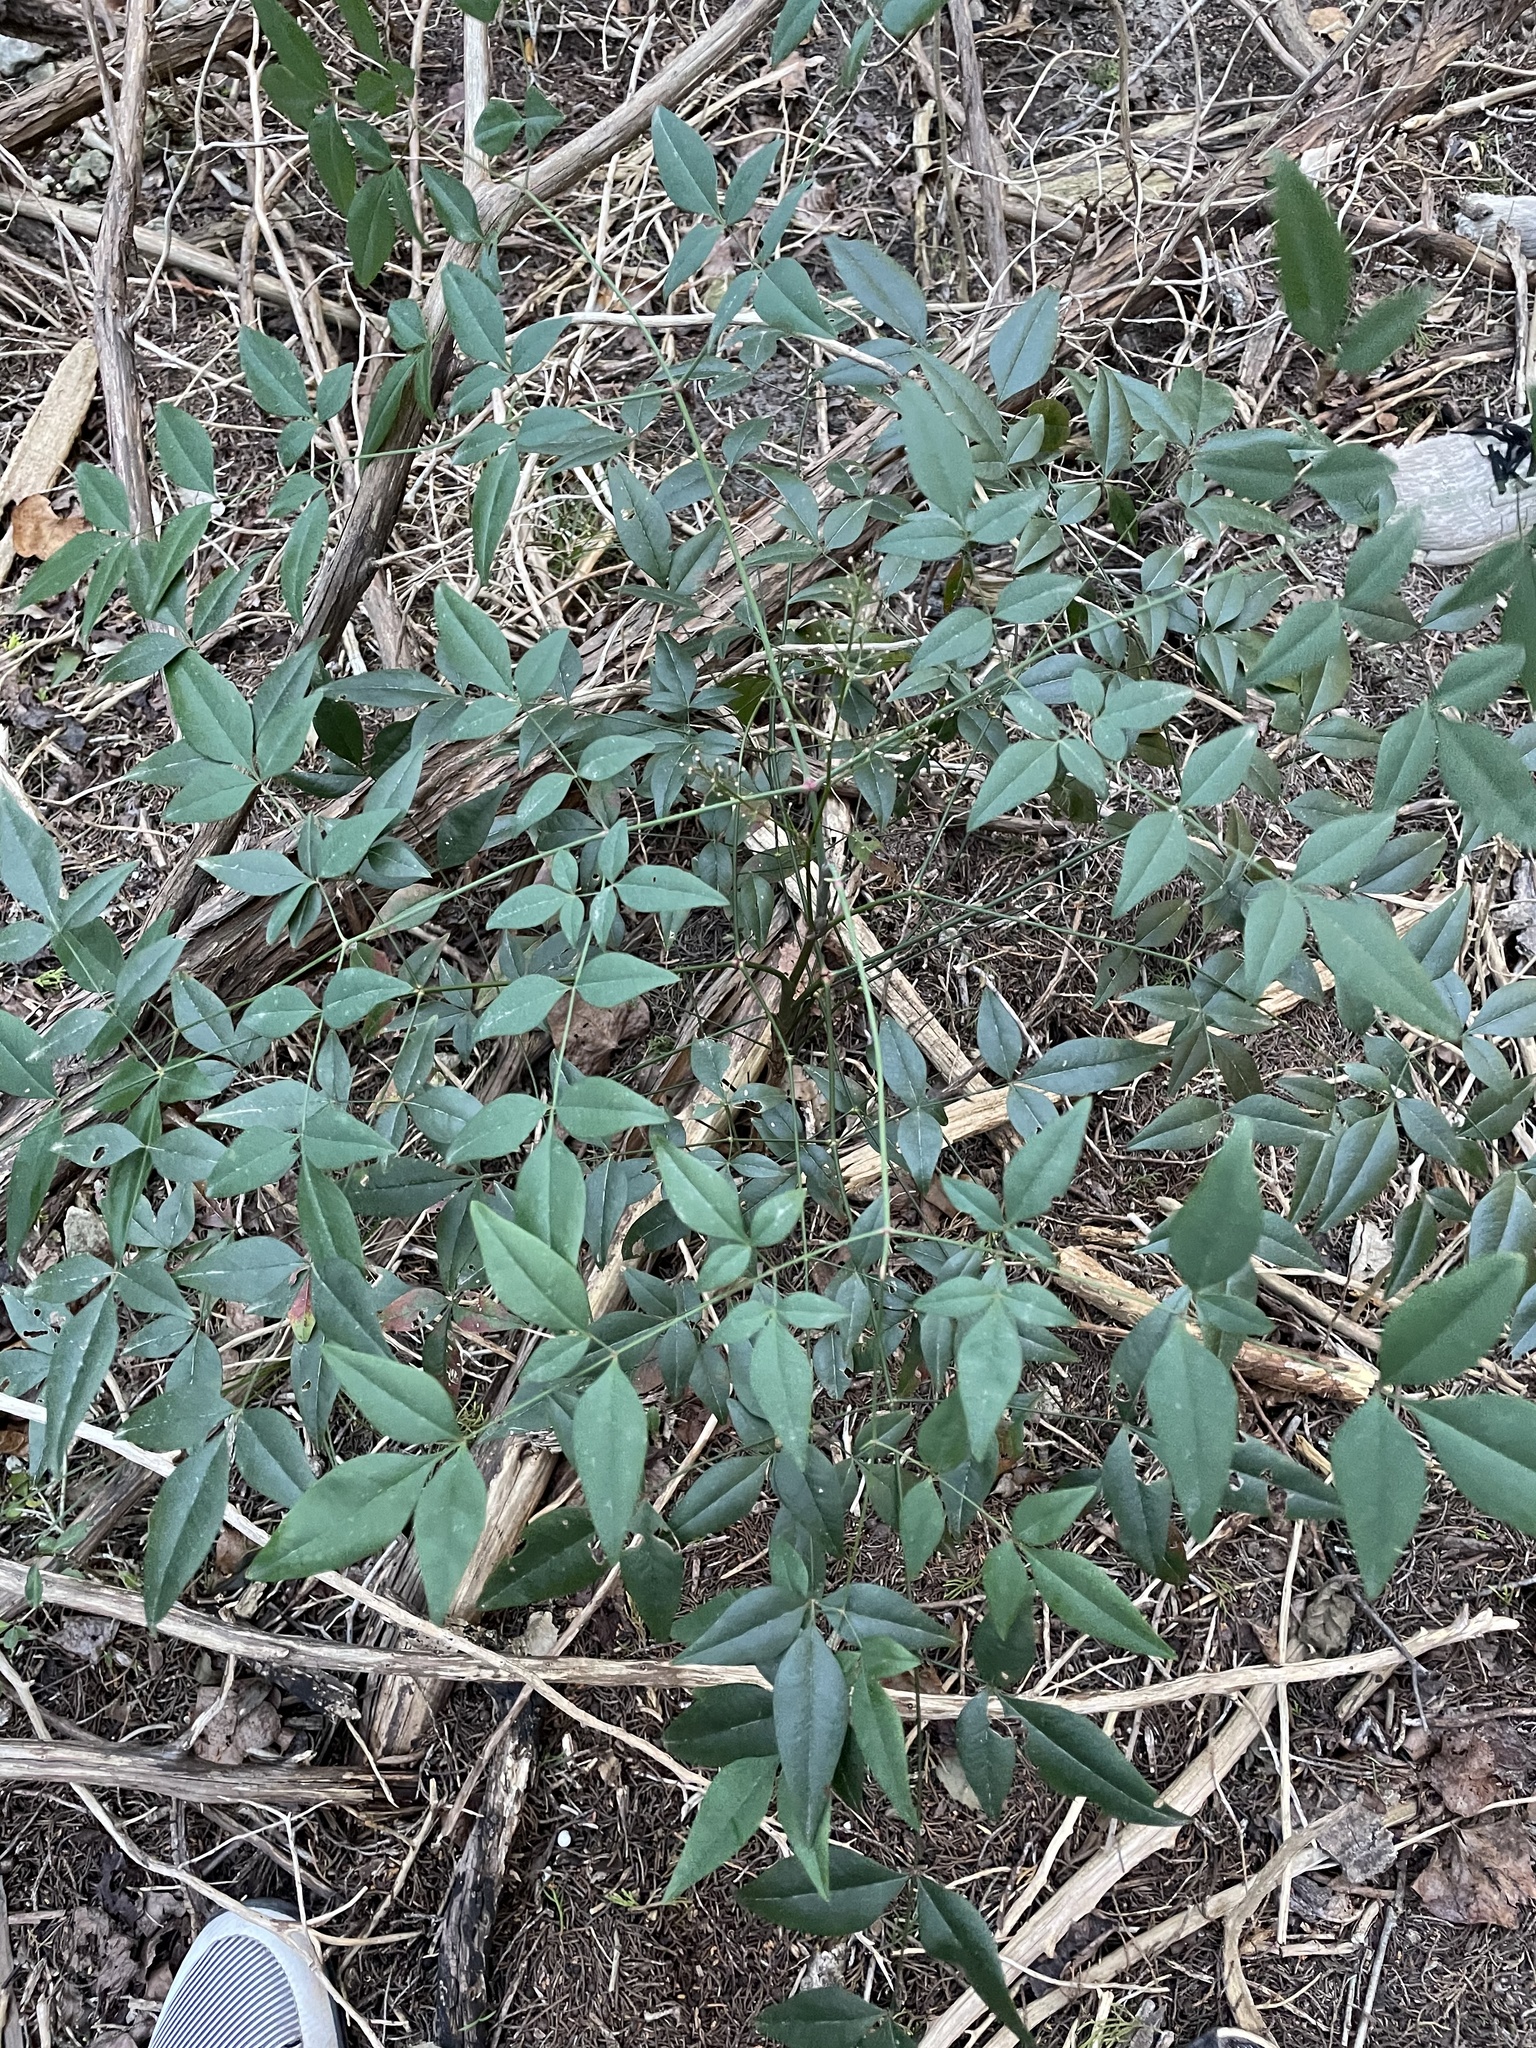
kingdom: Plantae
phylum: Tracheophyta
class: Magnoliopsida
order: Ranunculales
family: Berberidaceae
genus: Nandina
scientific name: Nandina domestica
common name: Sacred bamboo
